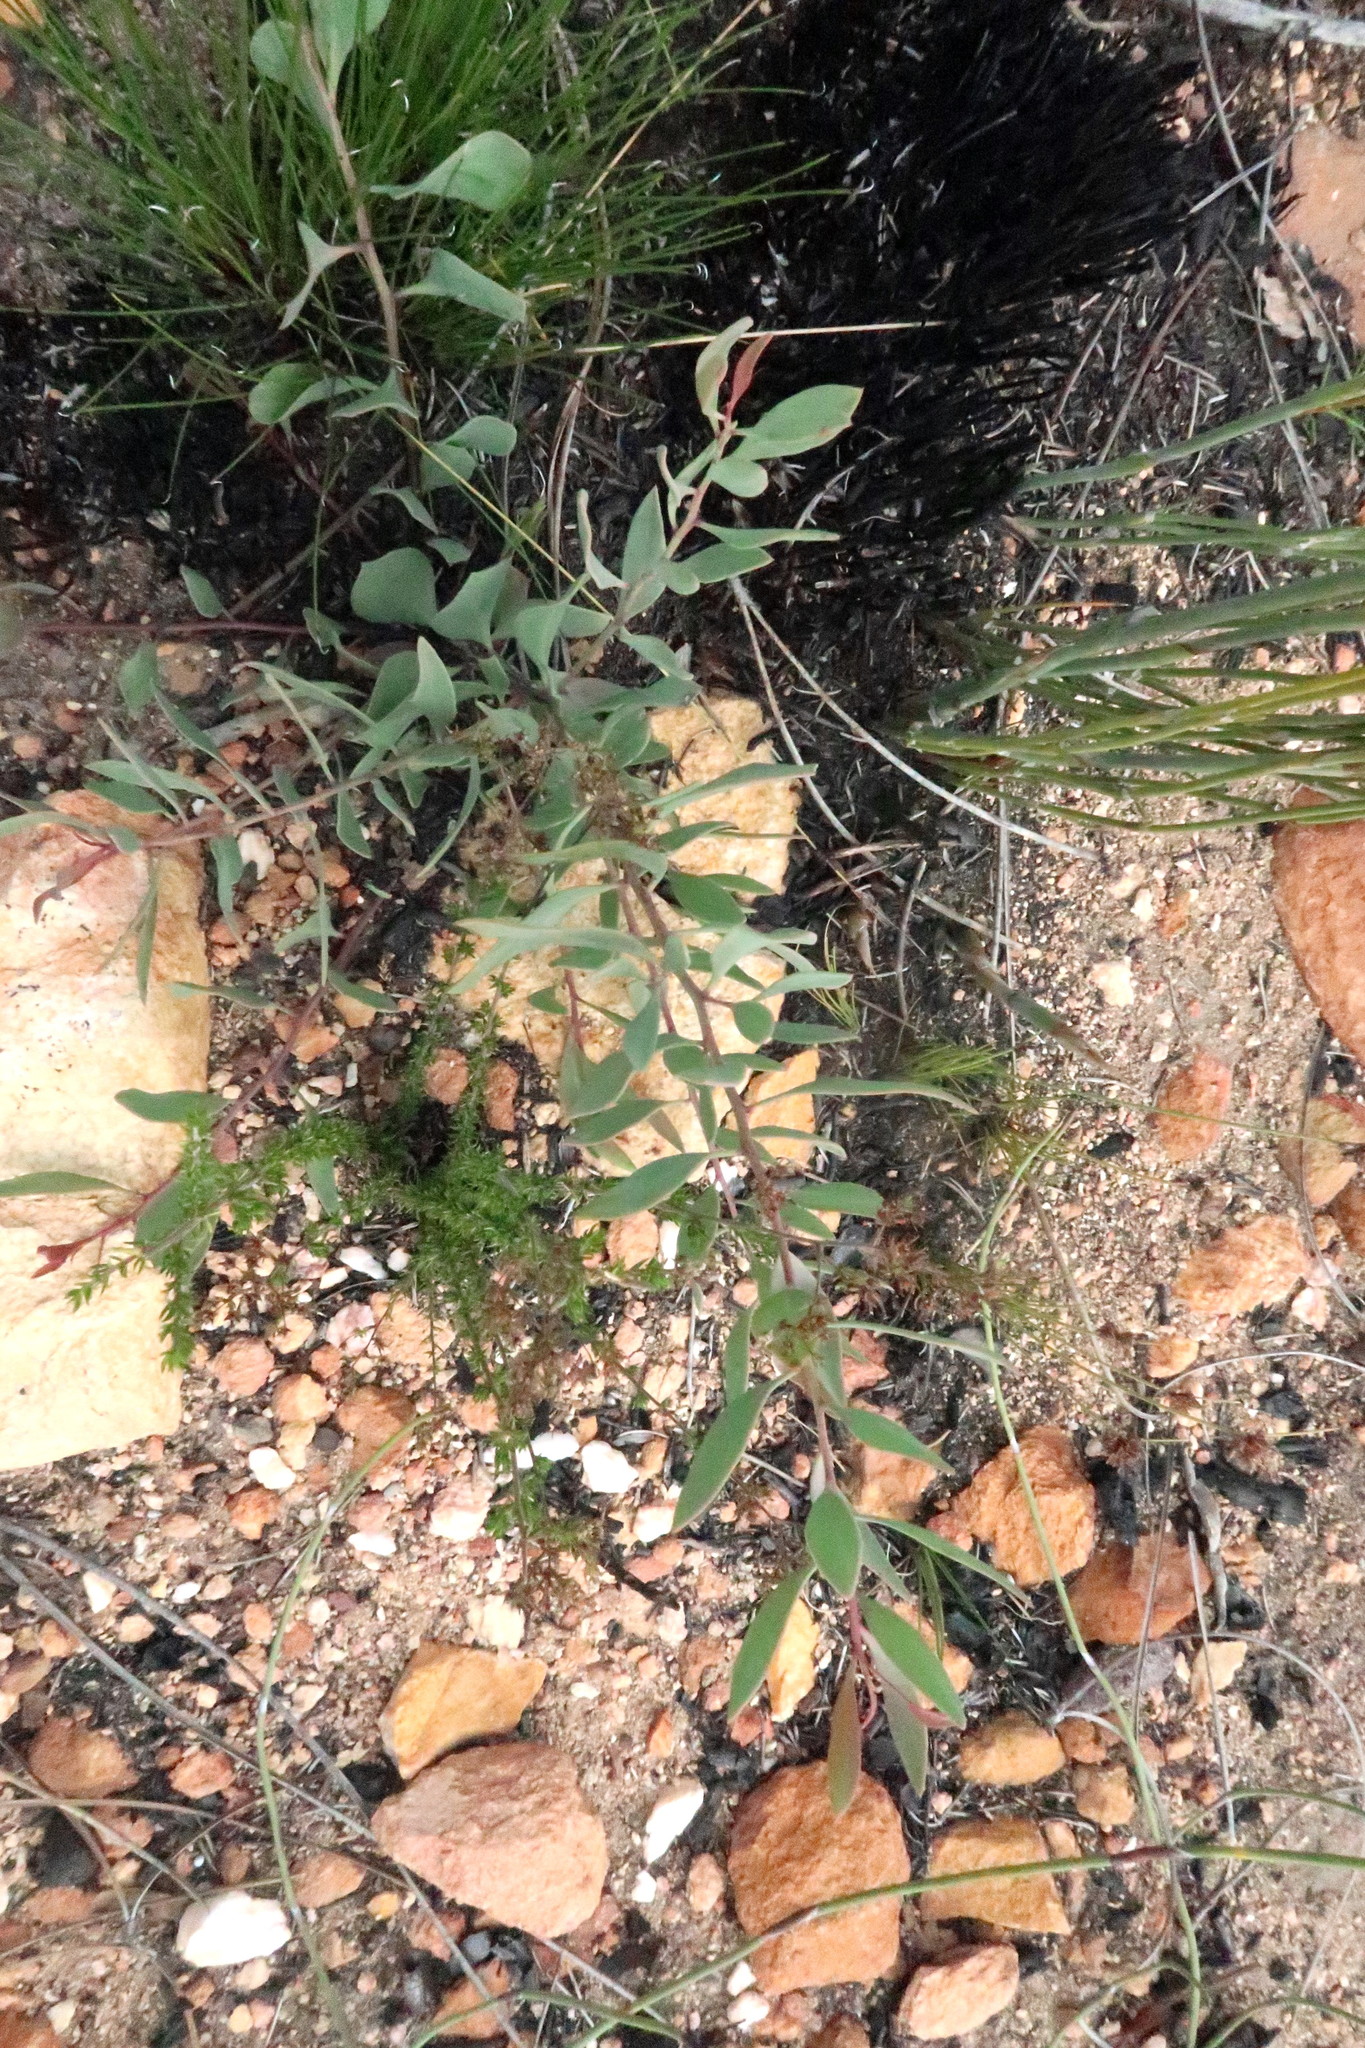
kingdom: Plantae
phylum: Tracheophyta
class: Magnoliopsida
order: Fabales
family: Fabaceae
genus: Rafnia
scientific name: Rafnia capensis
